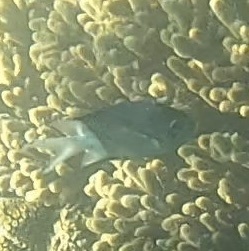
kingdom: Animalia
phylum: Chordata
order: Perciformes
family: Pomacentridae
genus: Acanthochromis
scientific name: Acanthochromis polyacanthus
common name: Spiny chromis
